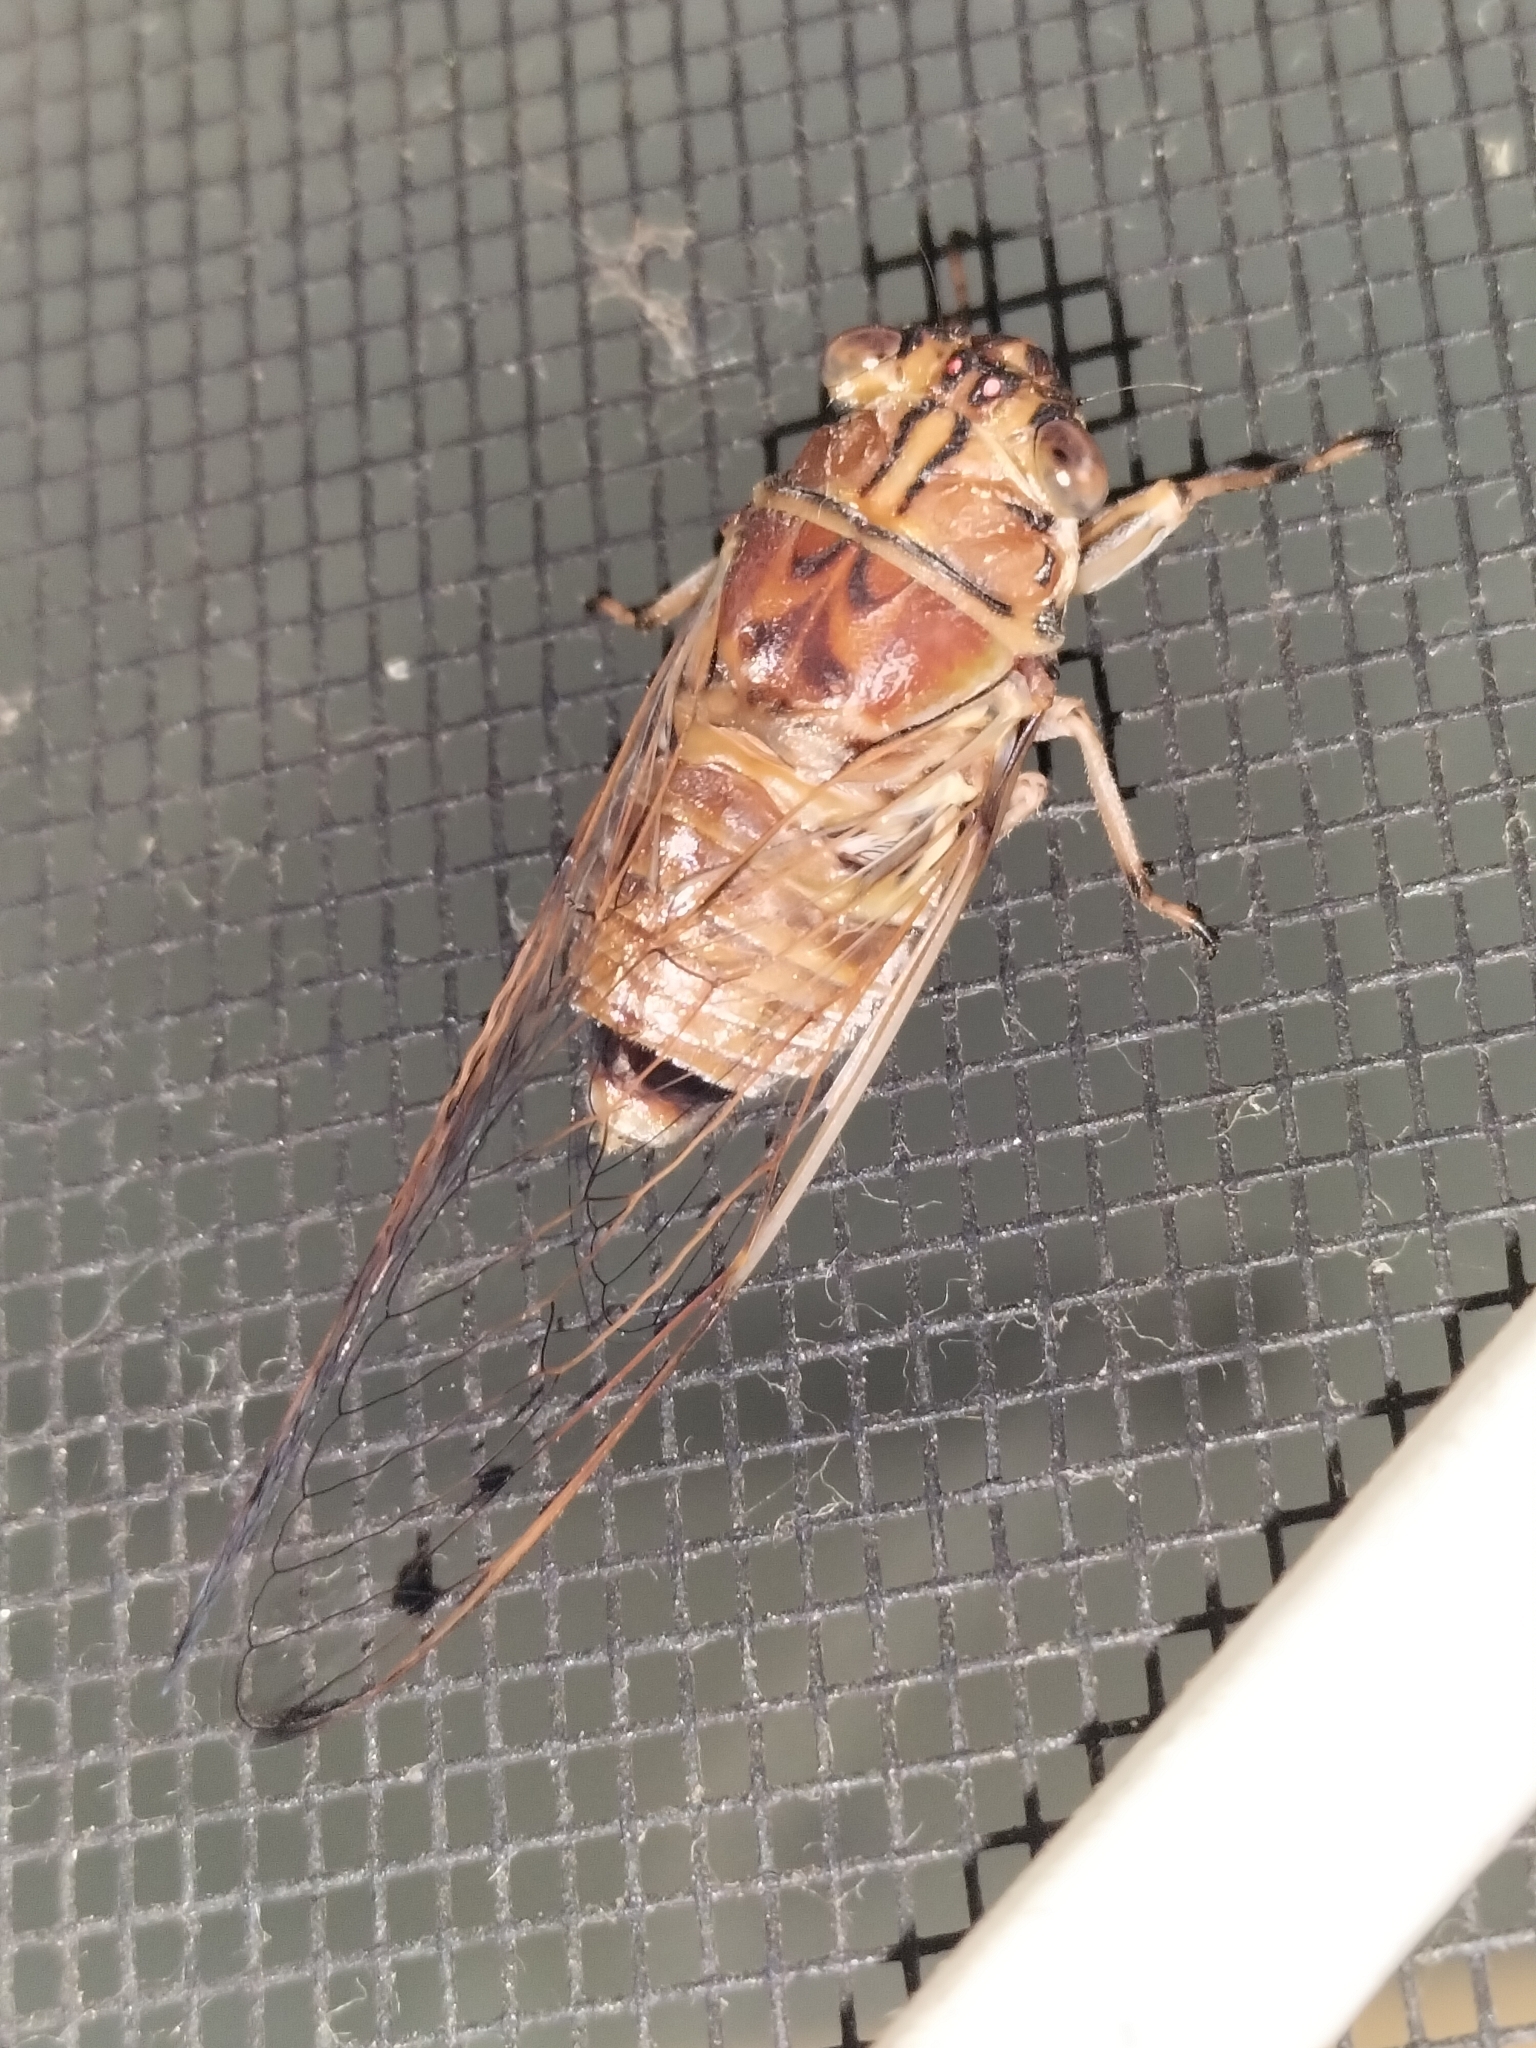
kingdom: Animalia
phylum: Arthropoda
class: Insecta
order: Hemiptera
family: Cicadidae
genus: Tamasa
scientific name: Tamasa burgessi
